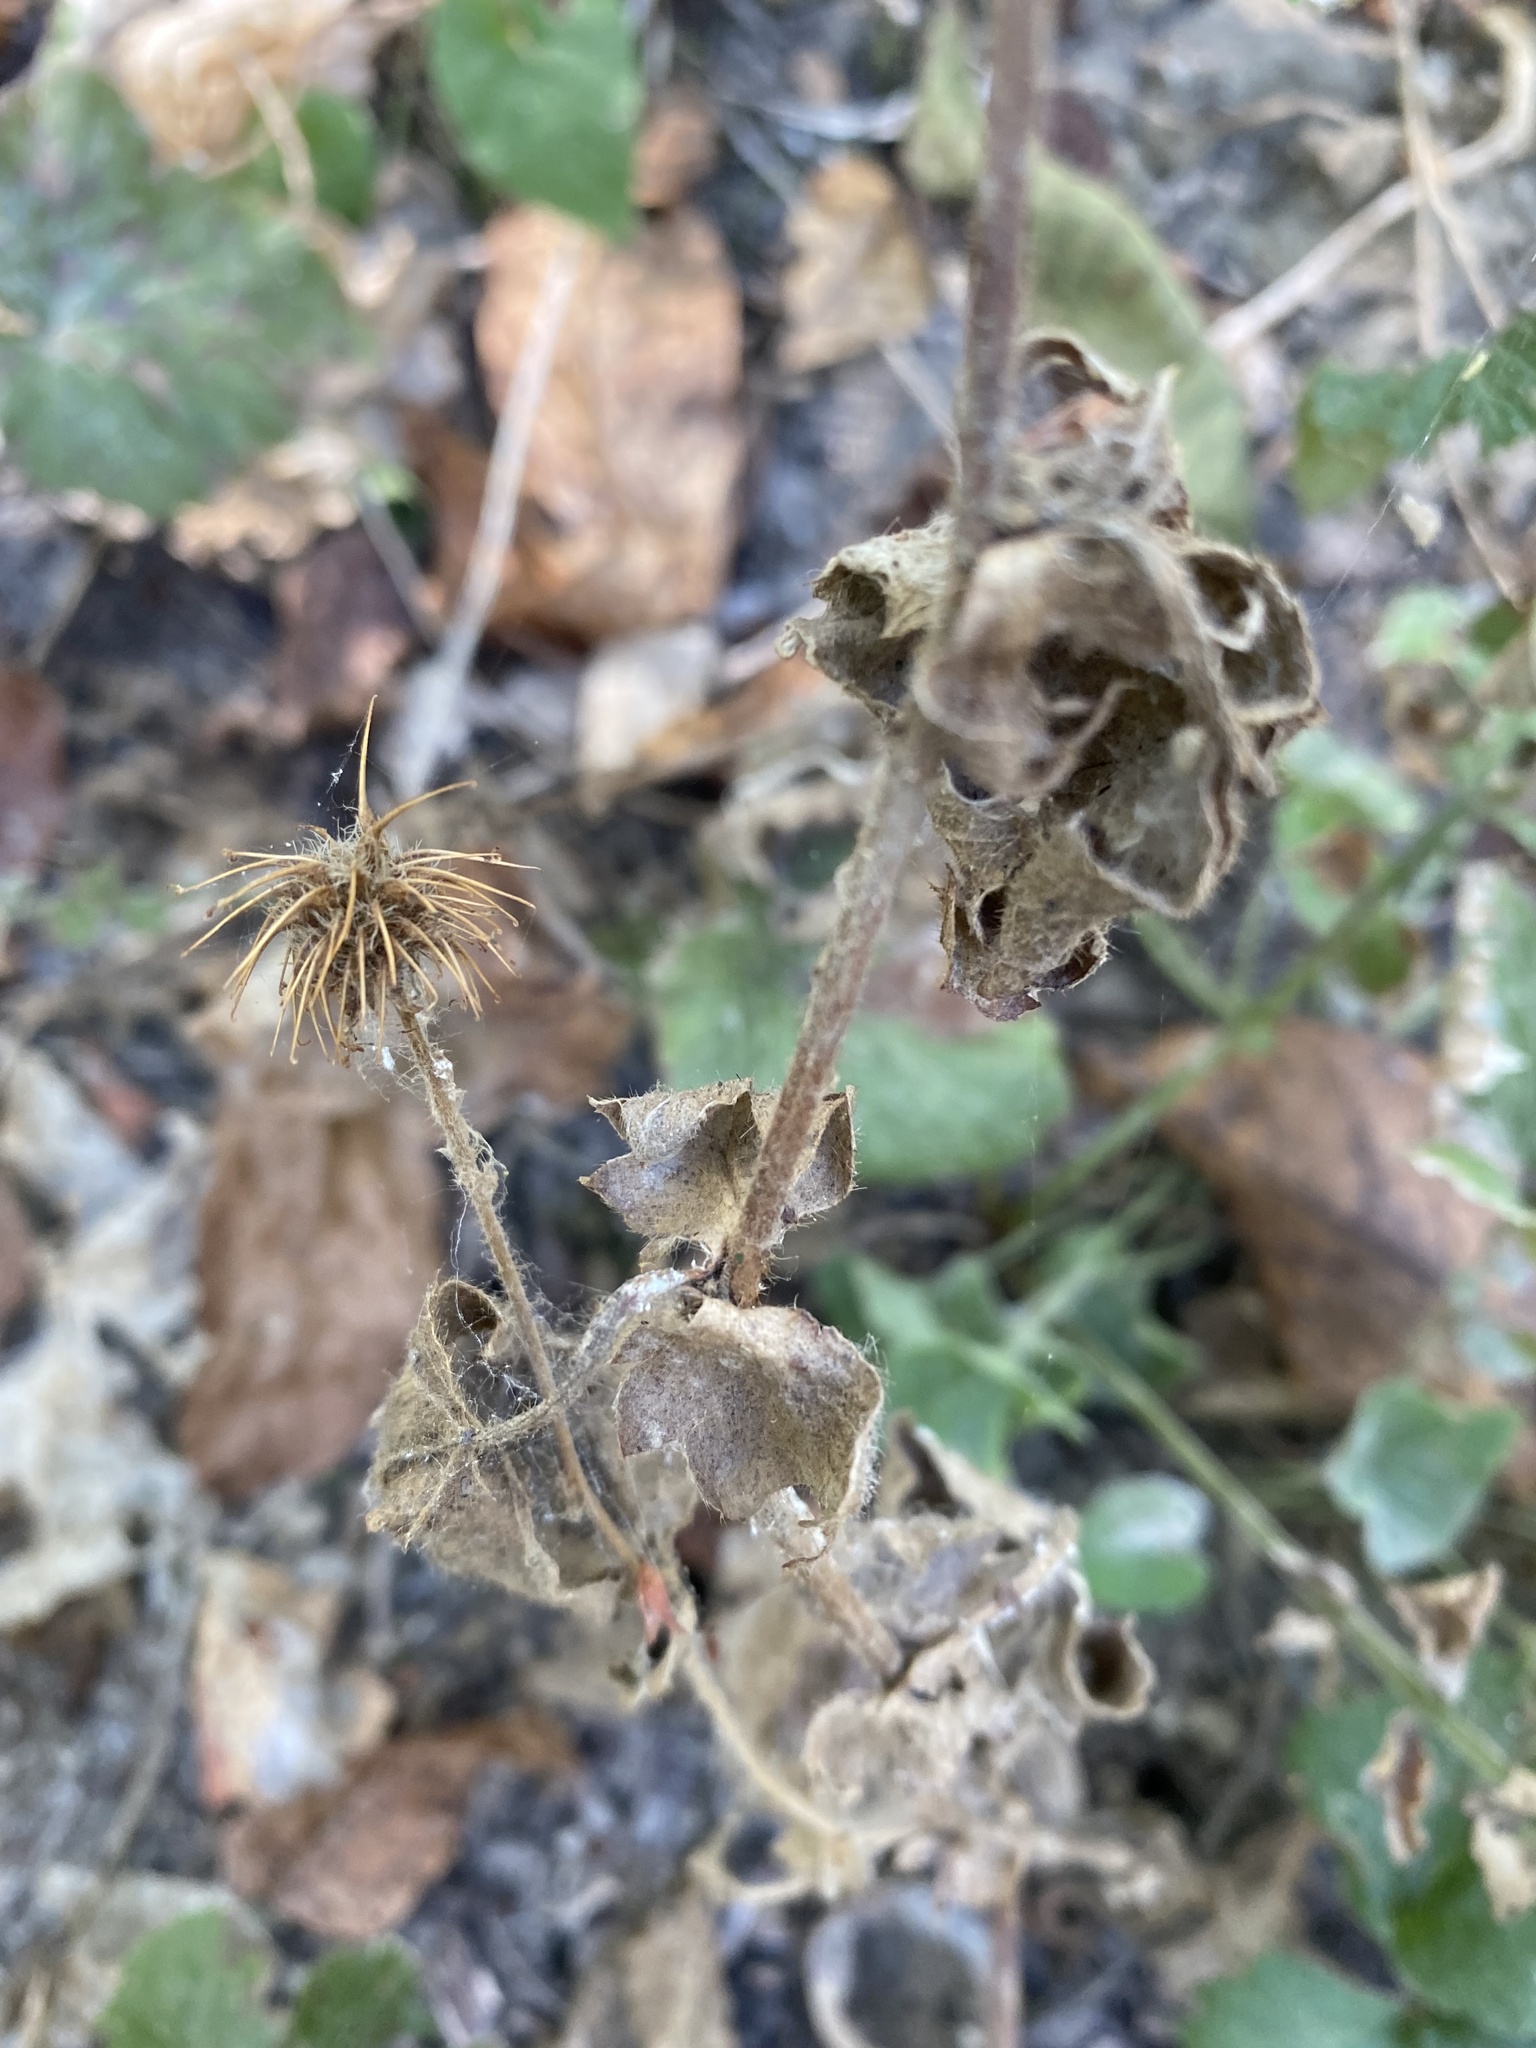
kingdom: Plantae
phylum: Tracheophyta
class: Magnoliopsida
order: Rosales
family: Rosaceae
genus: Geum
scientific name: Geum urbanum
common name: Wood avens
